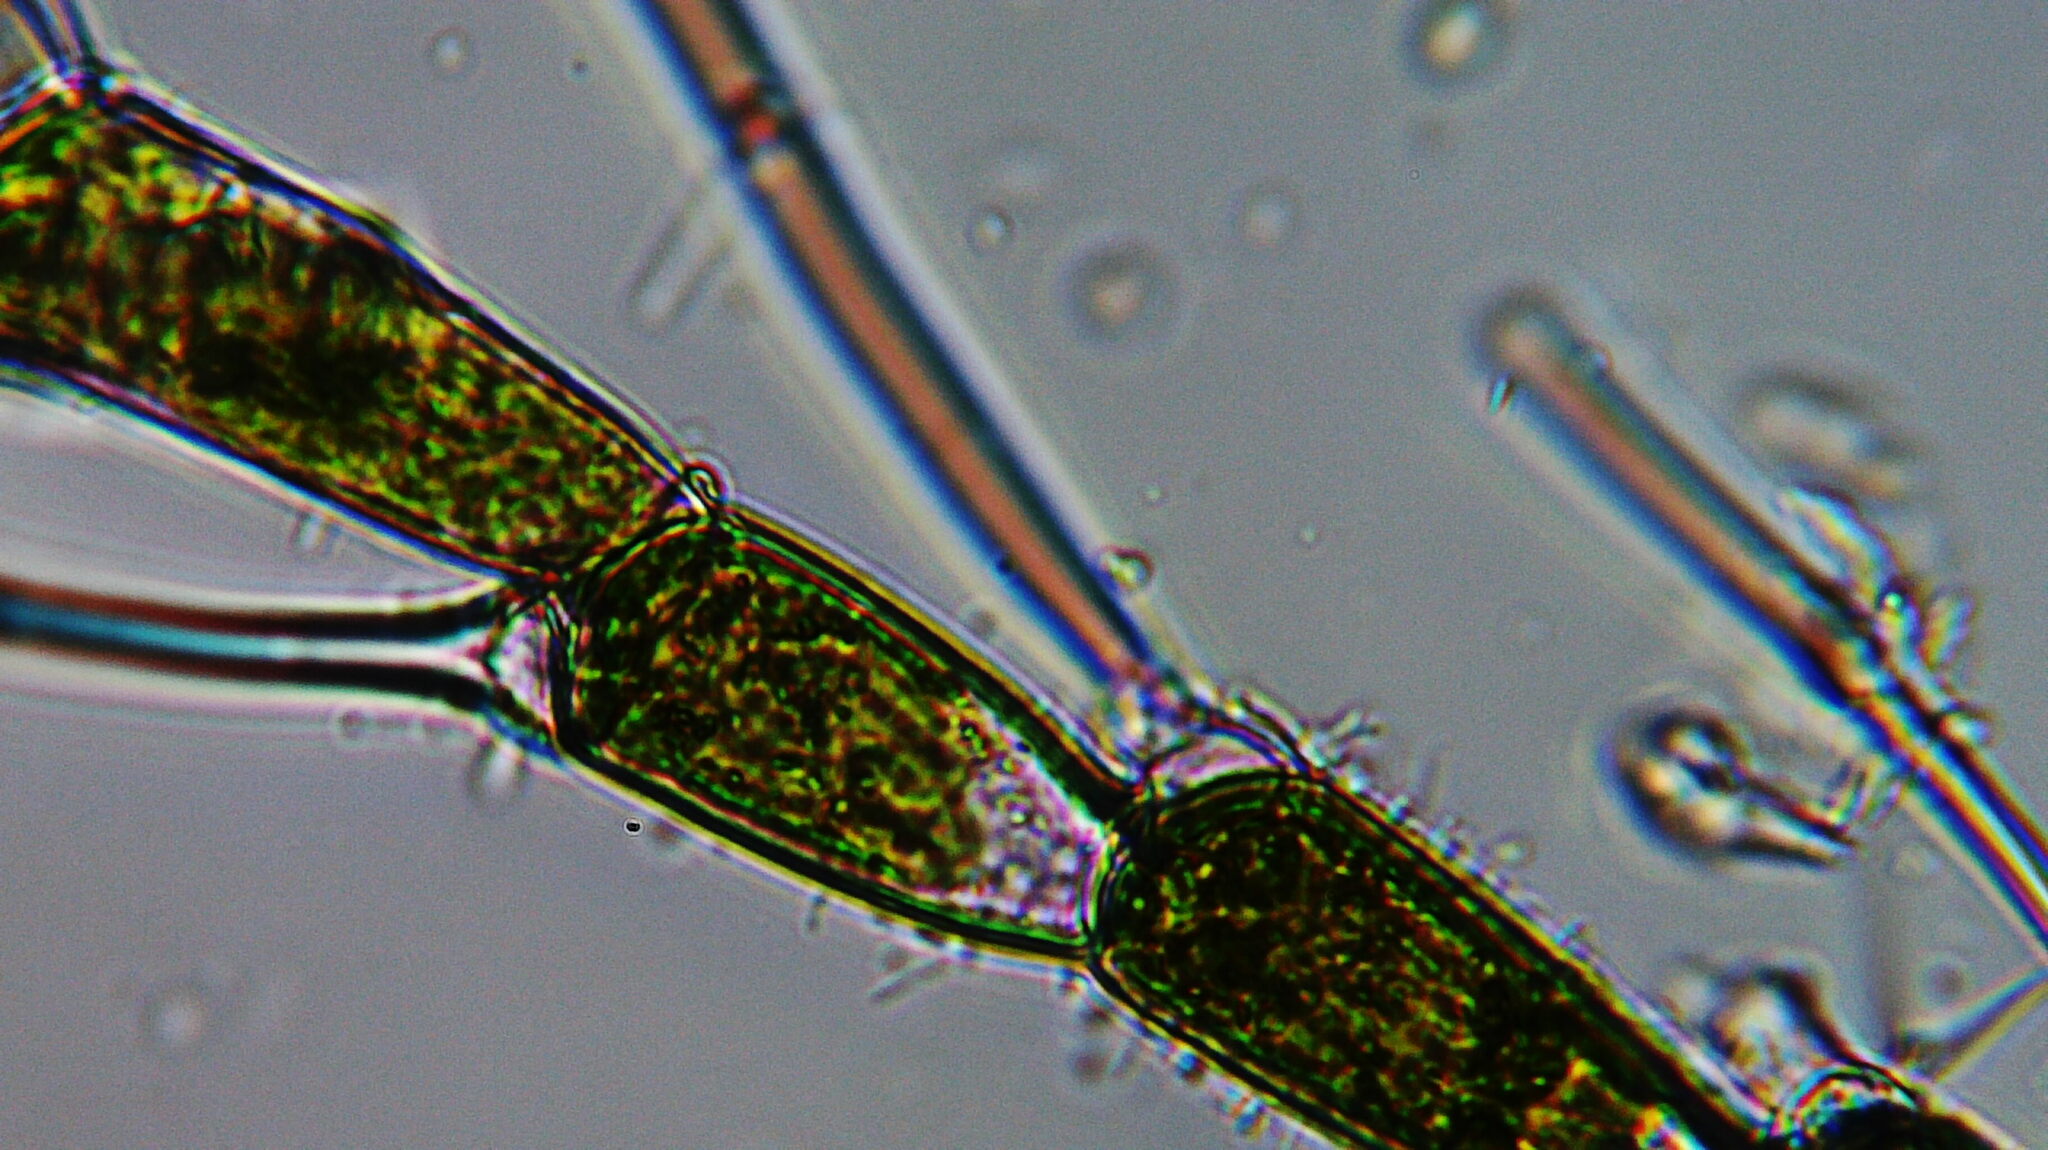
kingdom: Plantae
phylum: Chlorophyta
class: Chlorophyceae
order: Oedogoniales
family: Oedogoniaceae
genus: Bulbochaete
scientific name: Bulbochaete
